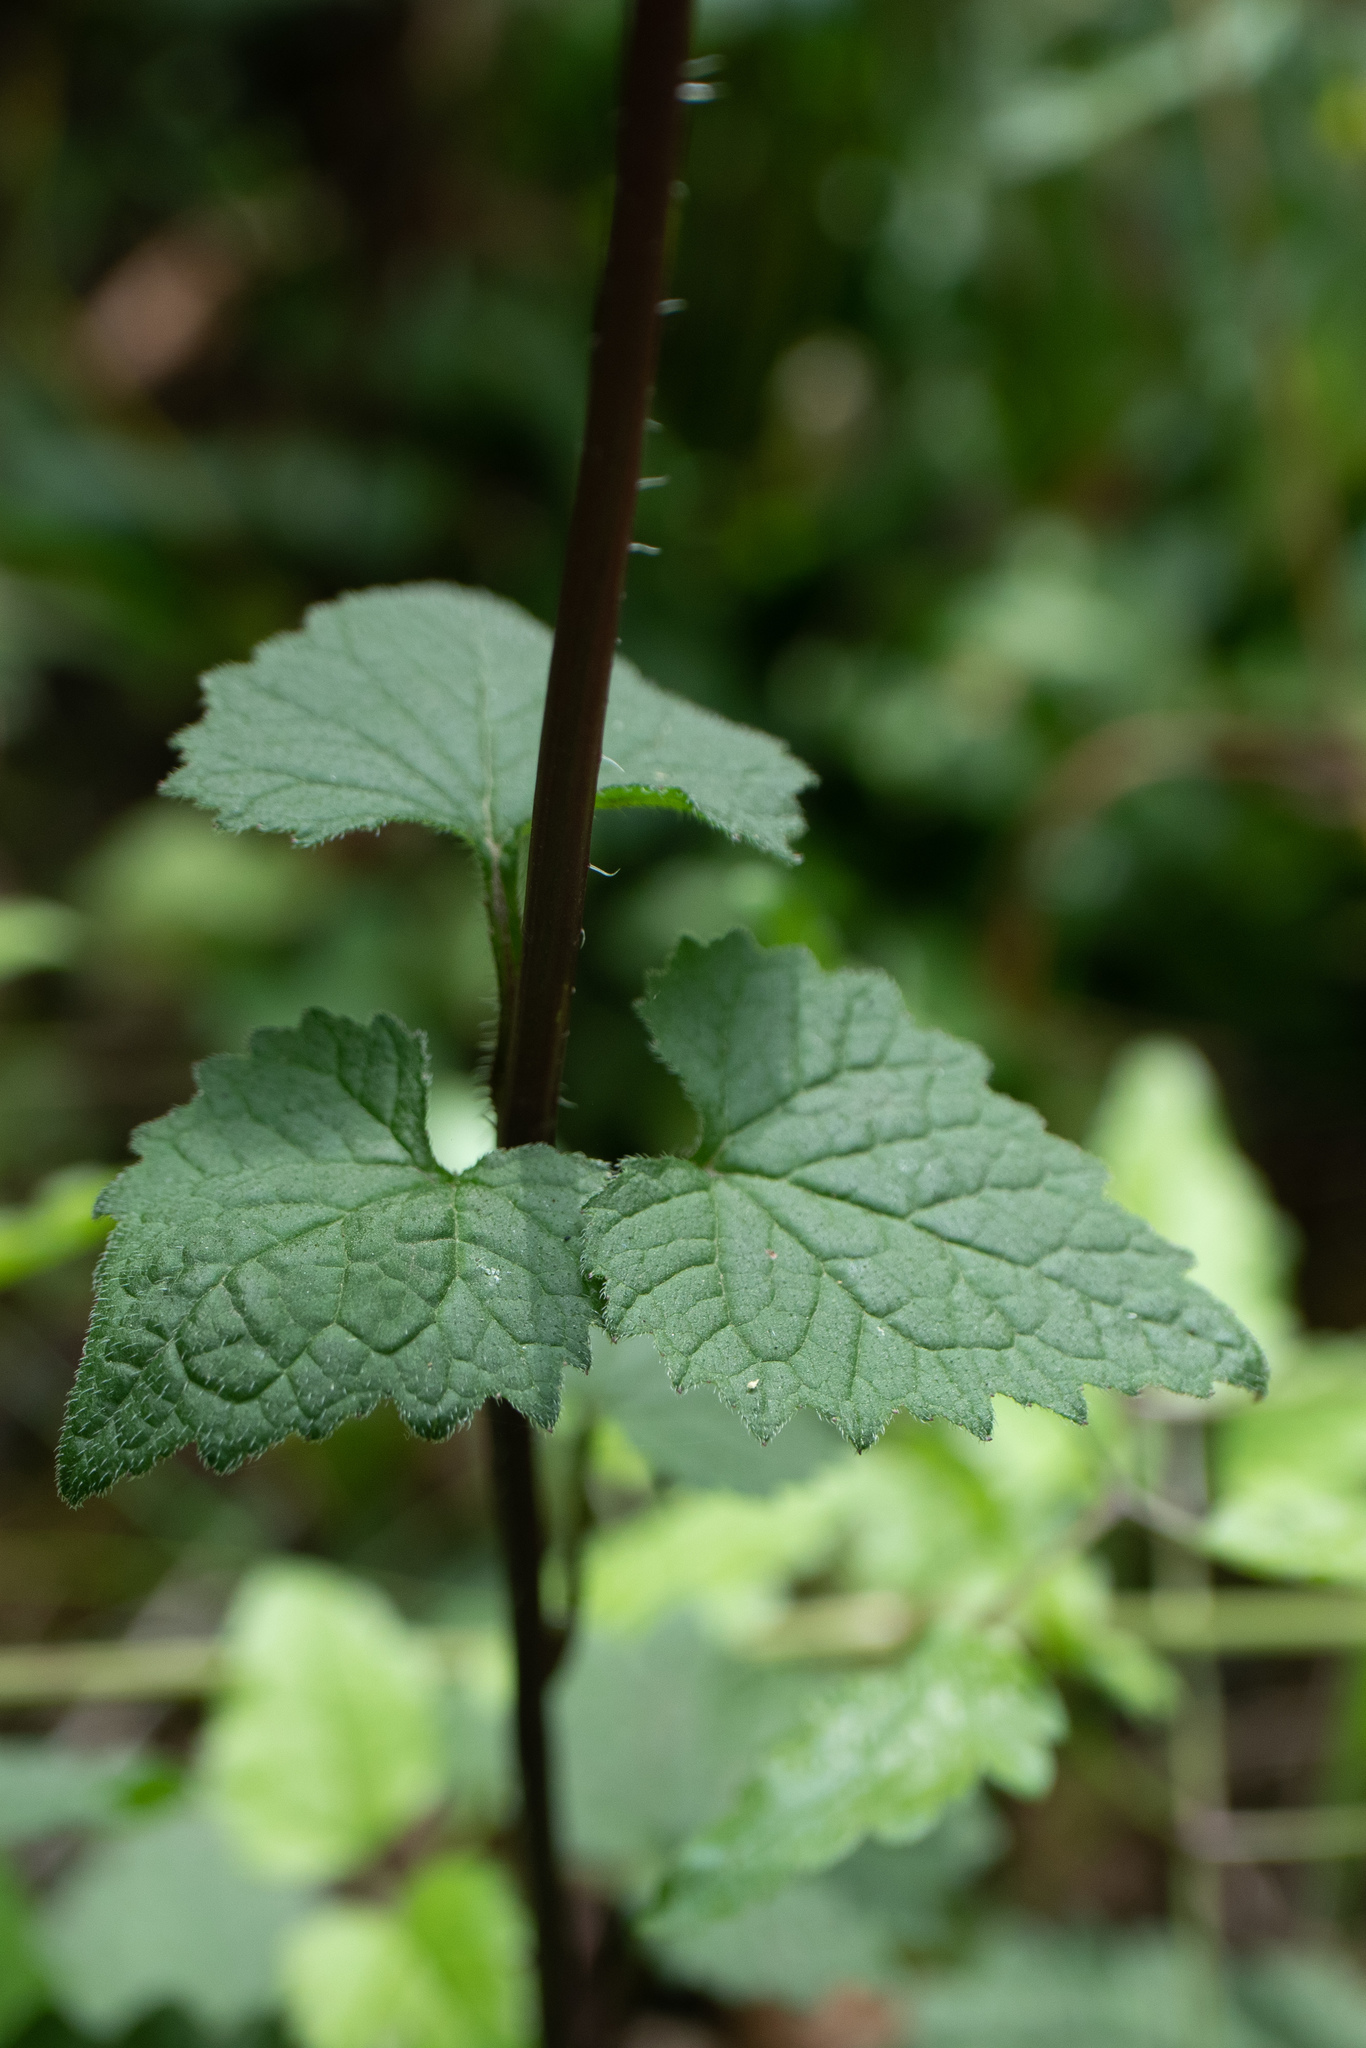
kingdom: Plantae
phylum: Tracheophyta
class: Magnoliopsida
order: Asterales
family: Campanulaceae
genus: Campanula
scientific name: Campanula trachelium
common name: Nettle-leaved bellflower
